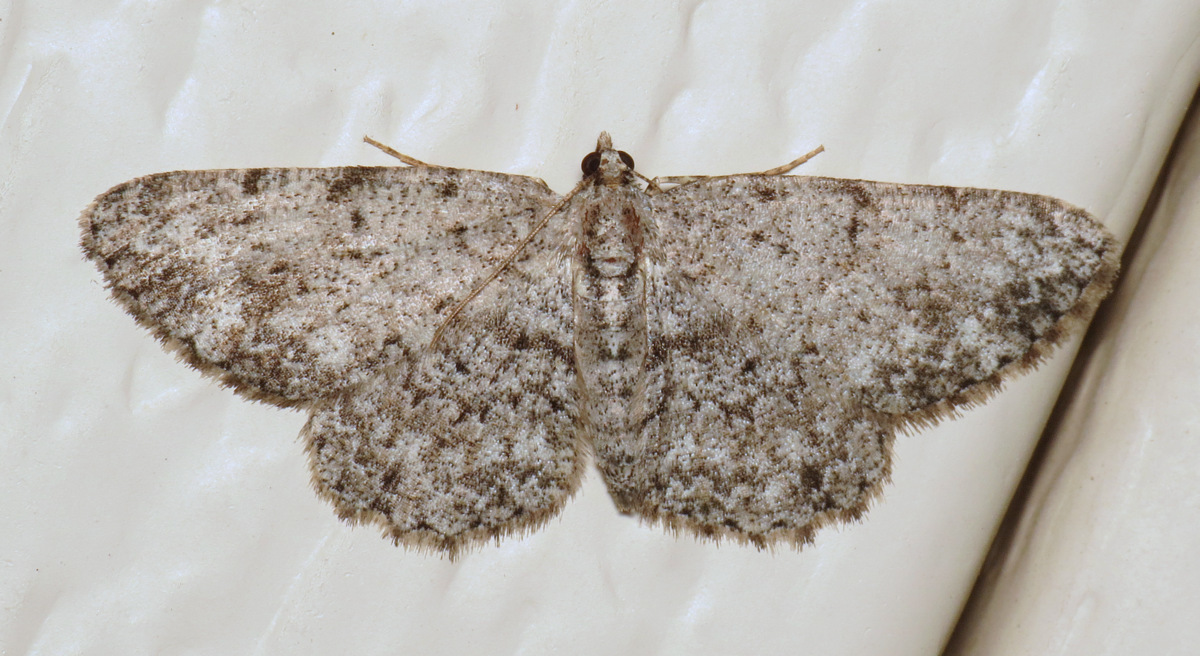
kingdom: Animalia
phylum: Arthropoda
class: Insecta
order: Lepidoptera
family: Geometridae
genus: Protoboarmia
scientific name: Protoboarmia porcelaria
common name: Porcelain gray
